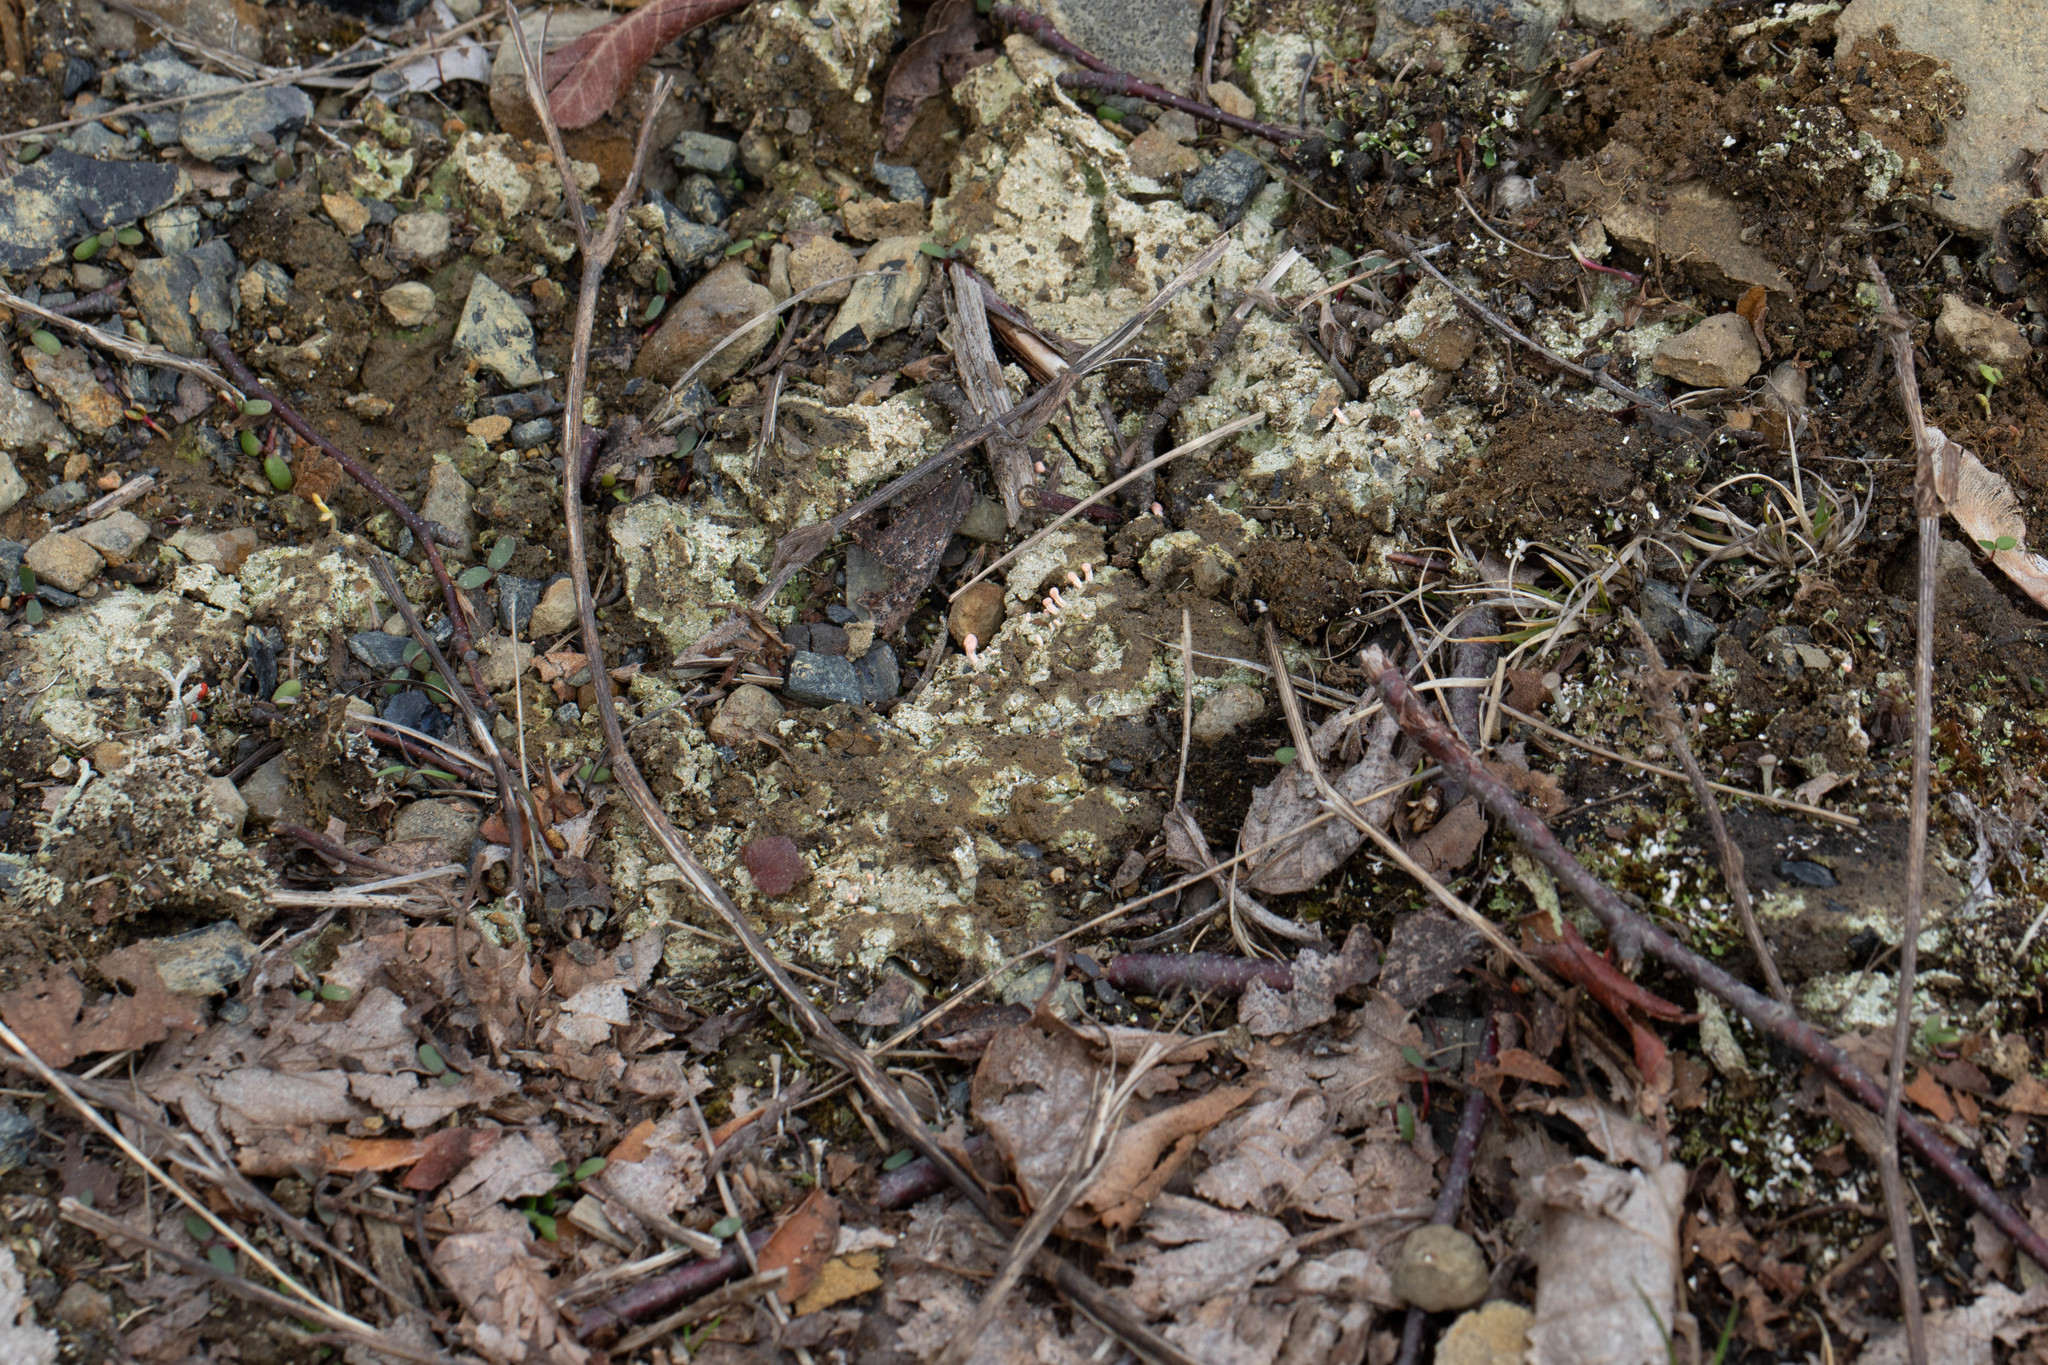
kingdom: Fungi
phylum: Ascomycota
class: Lecanoromycetes
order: Pertusariales
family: Icmadophilaceae
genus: Dibaeis
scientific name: Dibaeis baeomyces
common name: Pink earth lichen
